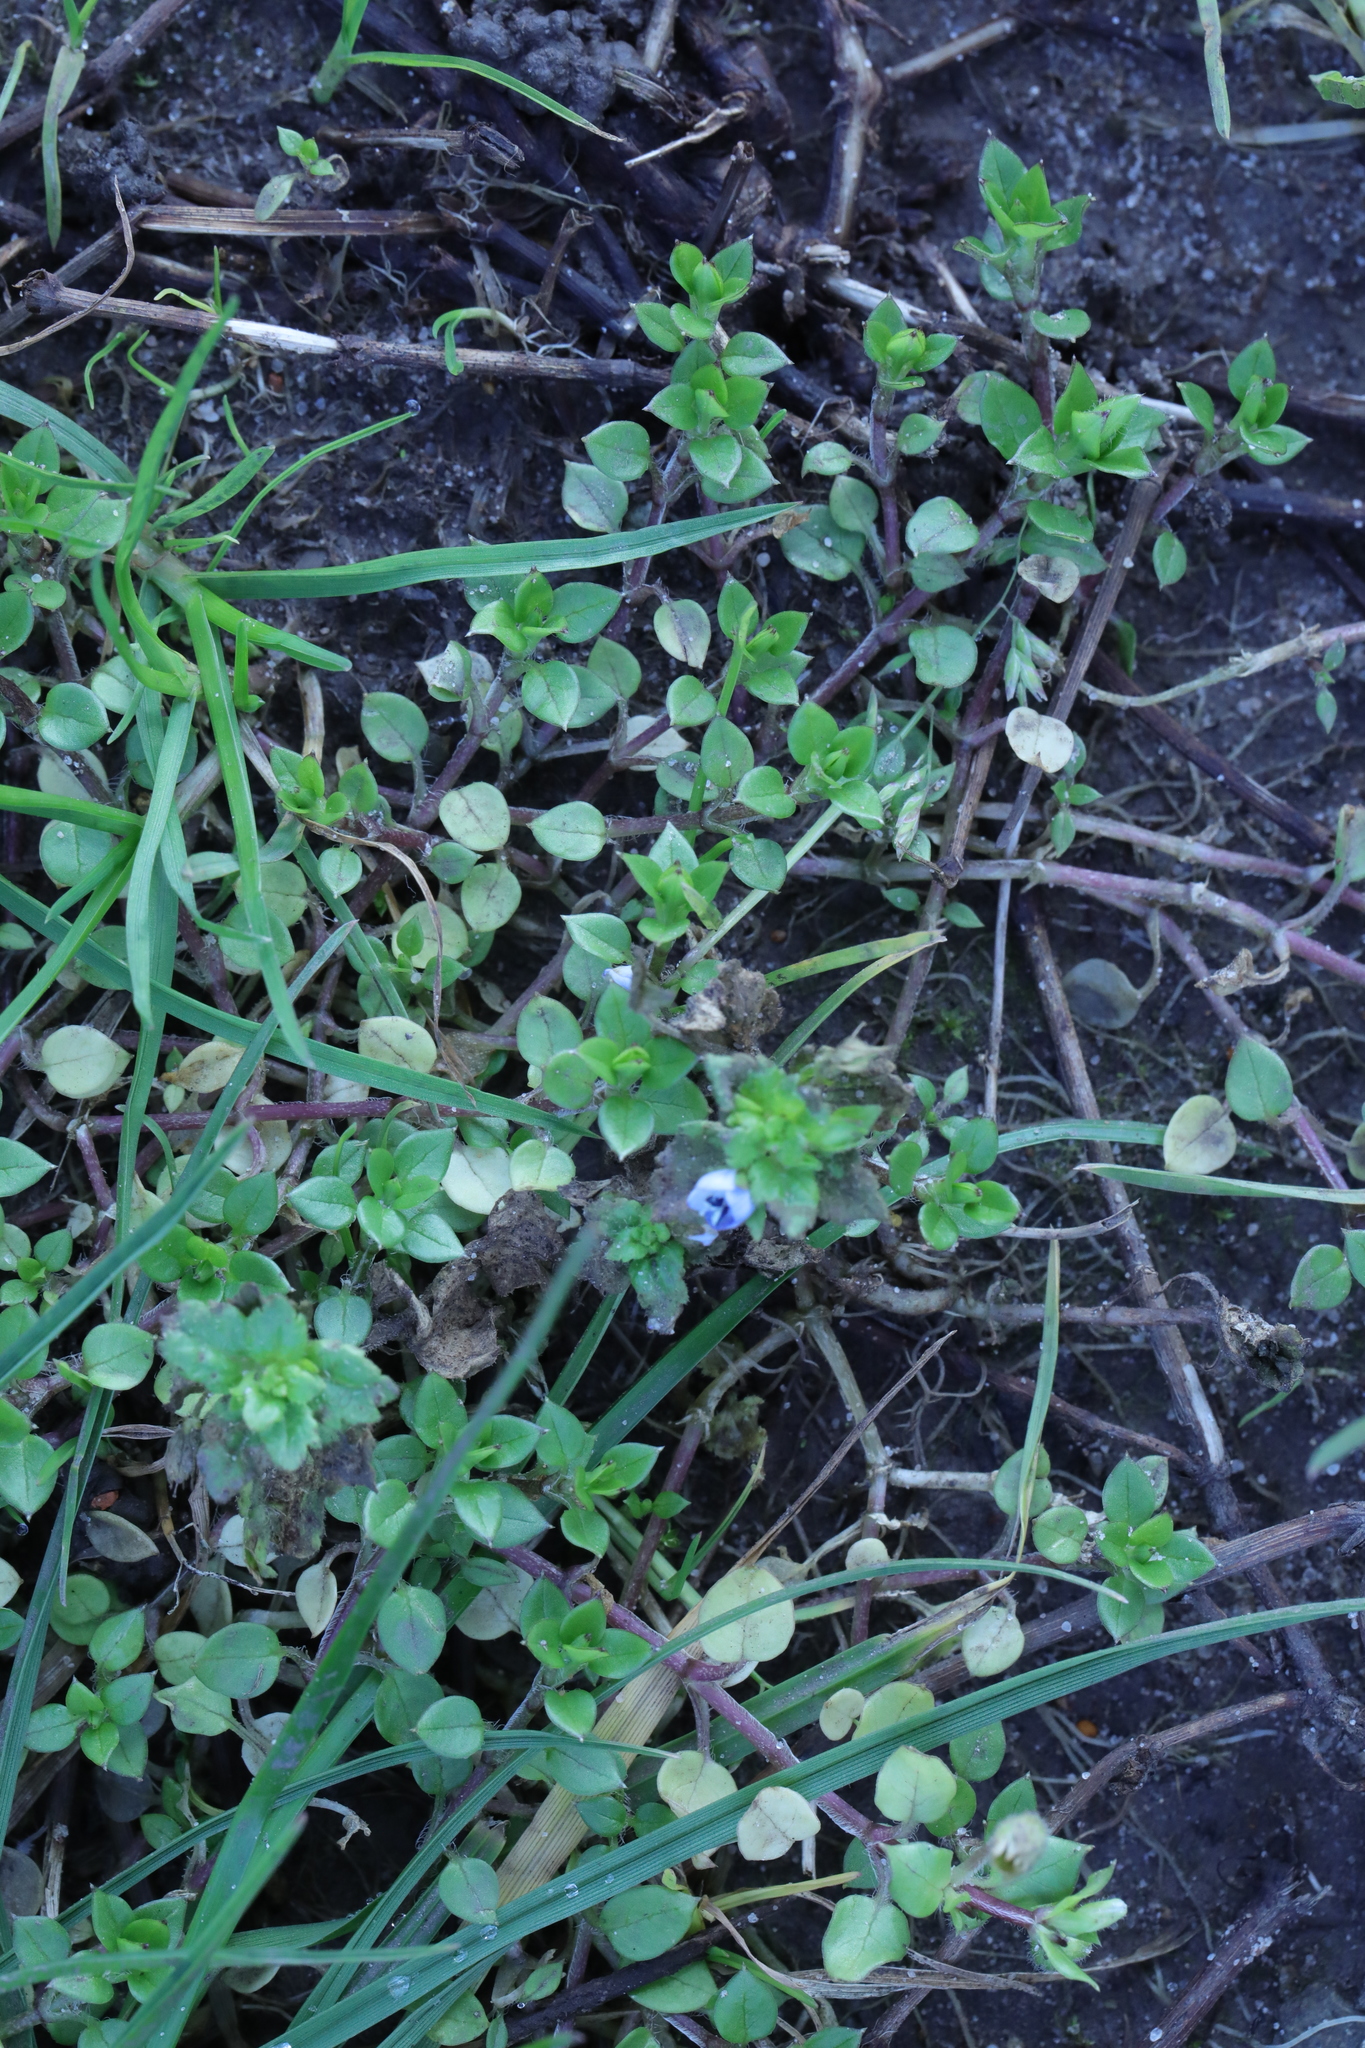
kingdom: Plantae
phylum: Tracheophyta
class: Magnoliopsida
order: Lamiales
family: Plantaginaceae
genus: Veronica
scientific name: Veronica persica
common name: Common field-speedwell
